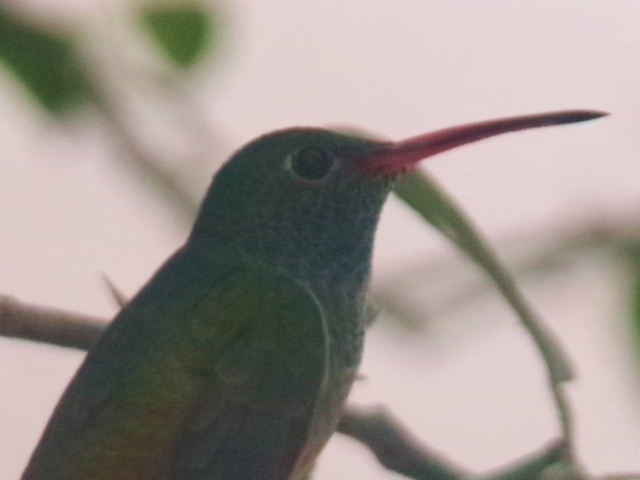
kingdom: Animalia
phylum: Chordata
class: Aves
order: Apodiformes
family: Trochilidae
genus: Amazilia
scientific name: Amazilia yucatanensis
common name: Buff-bellied hummingbird
